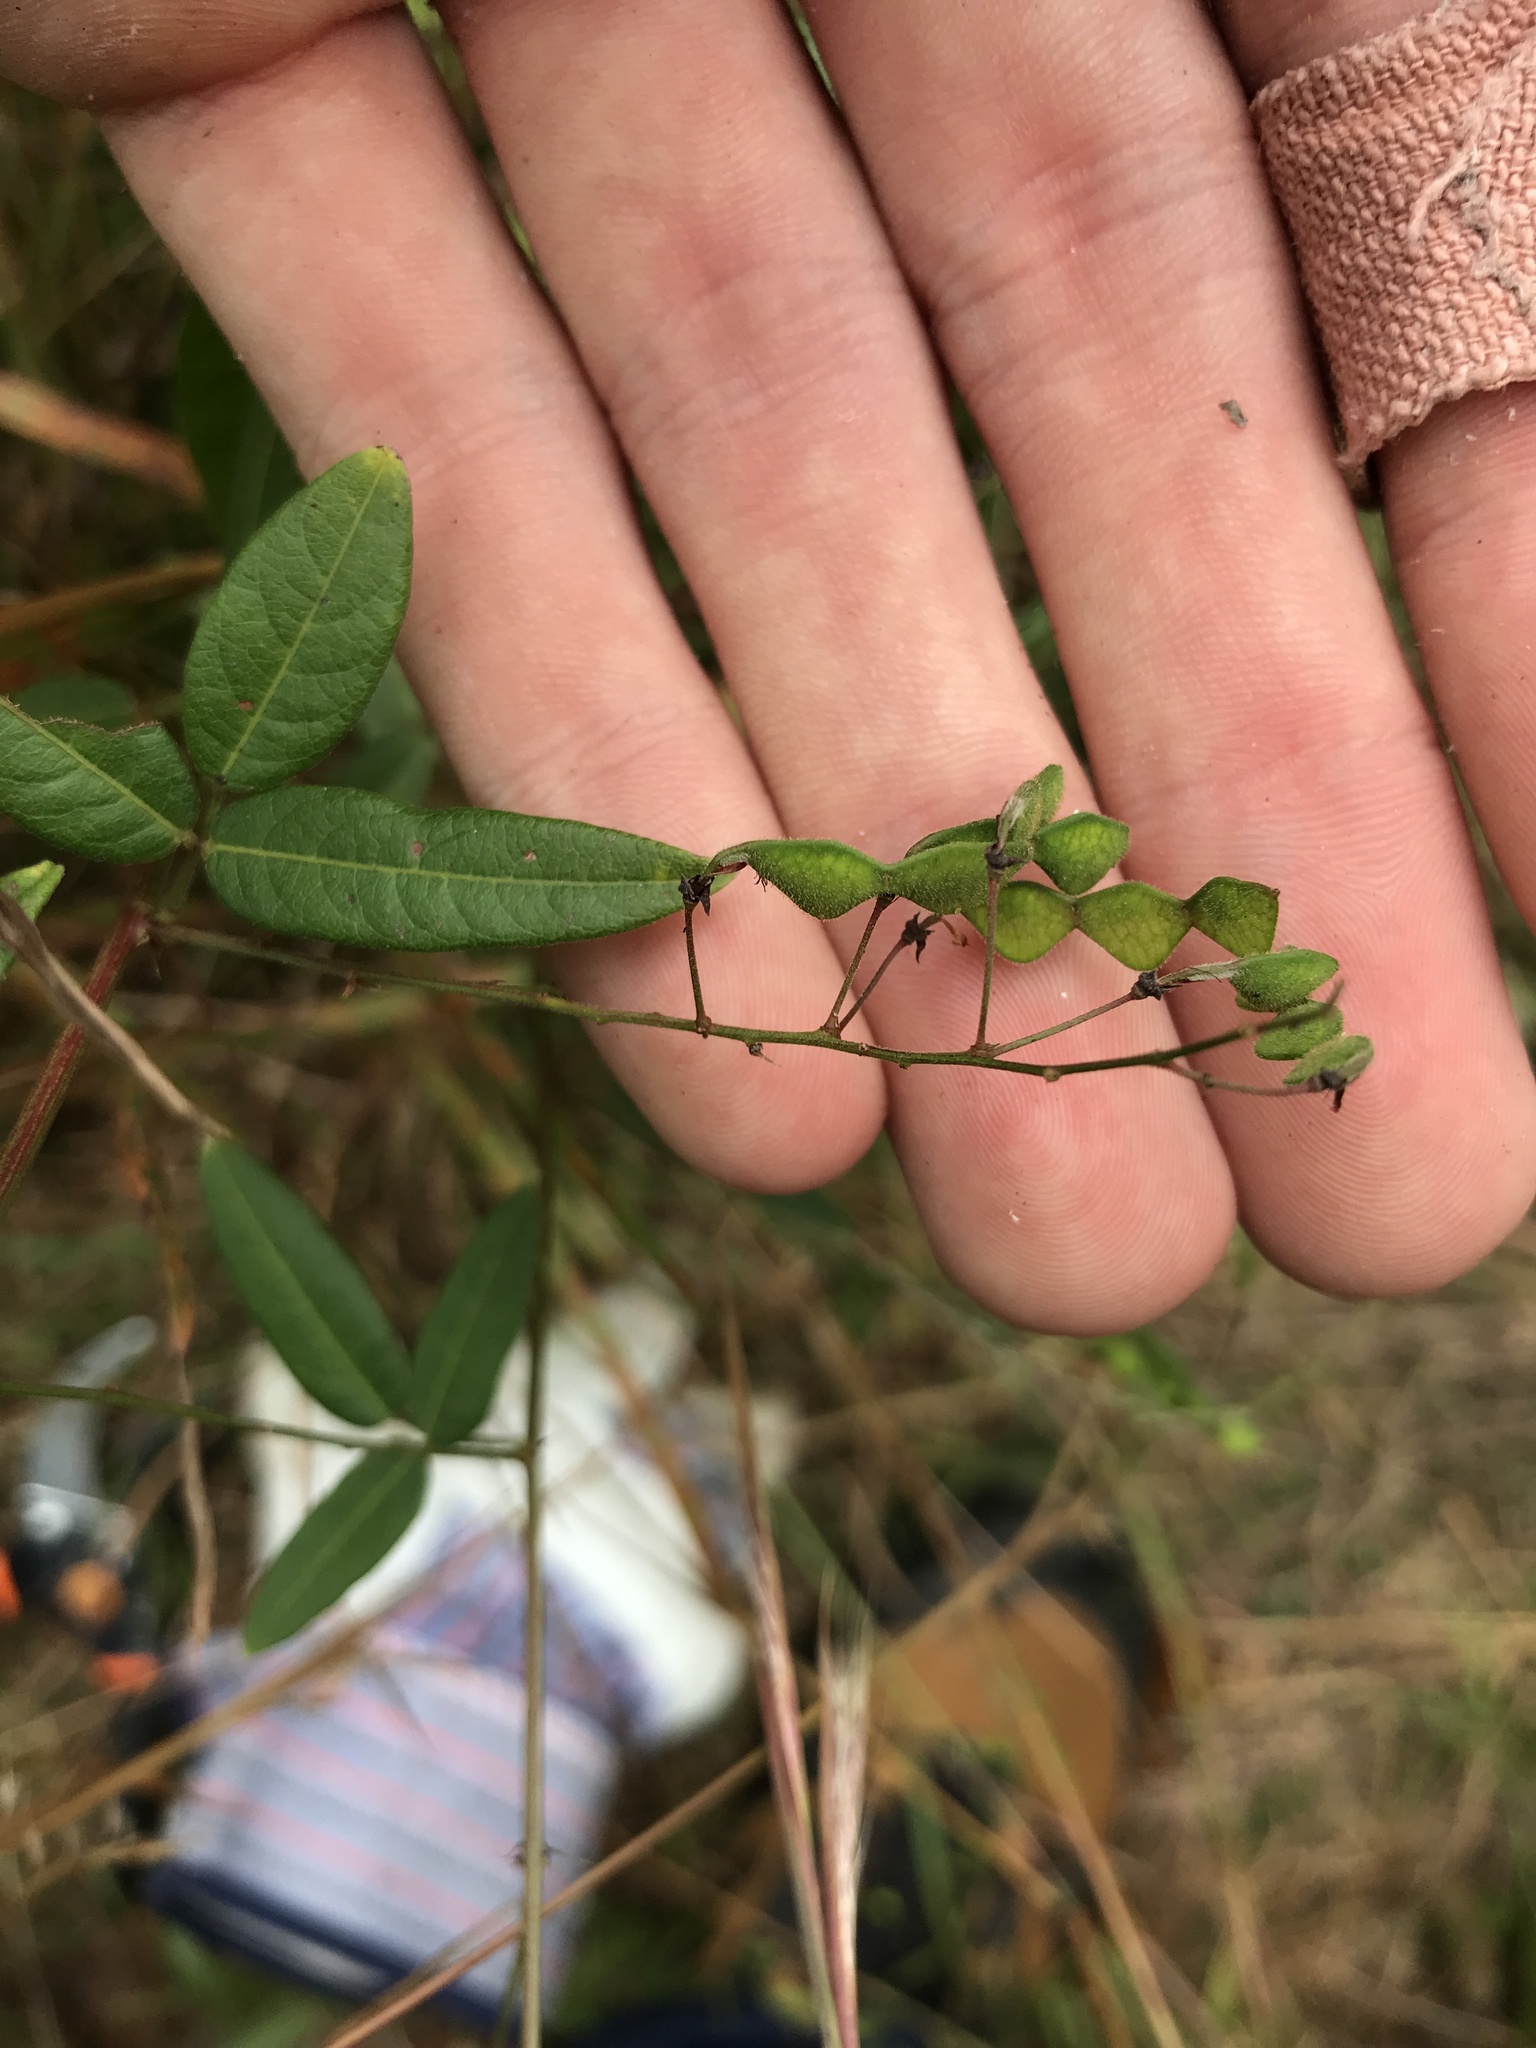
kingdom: Plantae
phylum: Tracheophyta
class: Magnoliopsida
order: Fabales
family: Fabaceae
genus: Desmodium
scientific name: Desmodium paniculatum
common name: Panicled tick-clover
